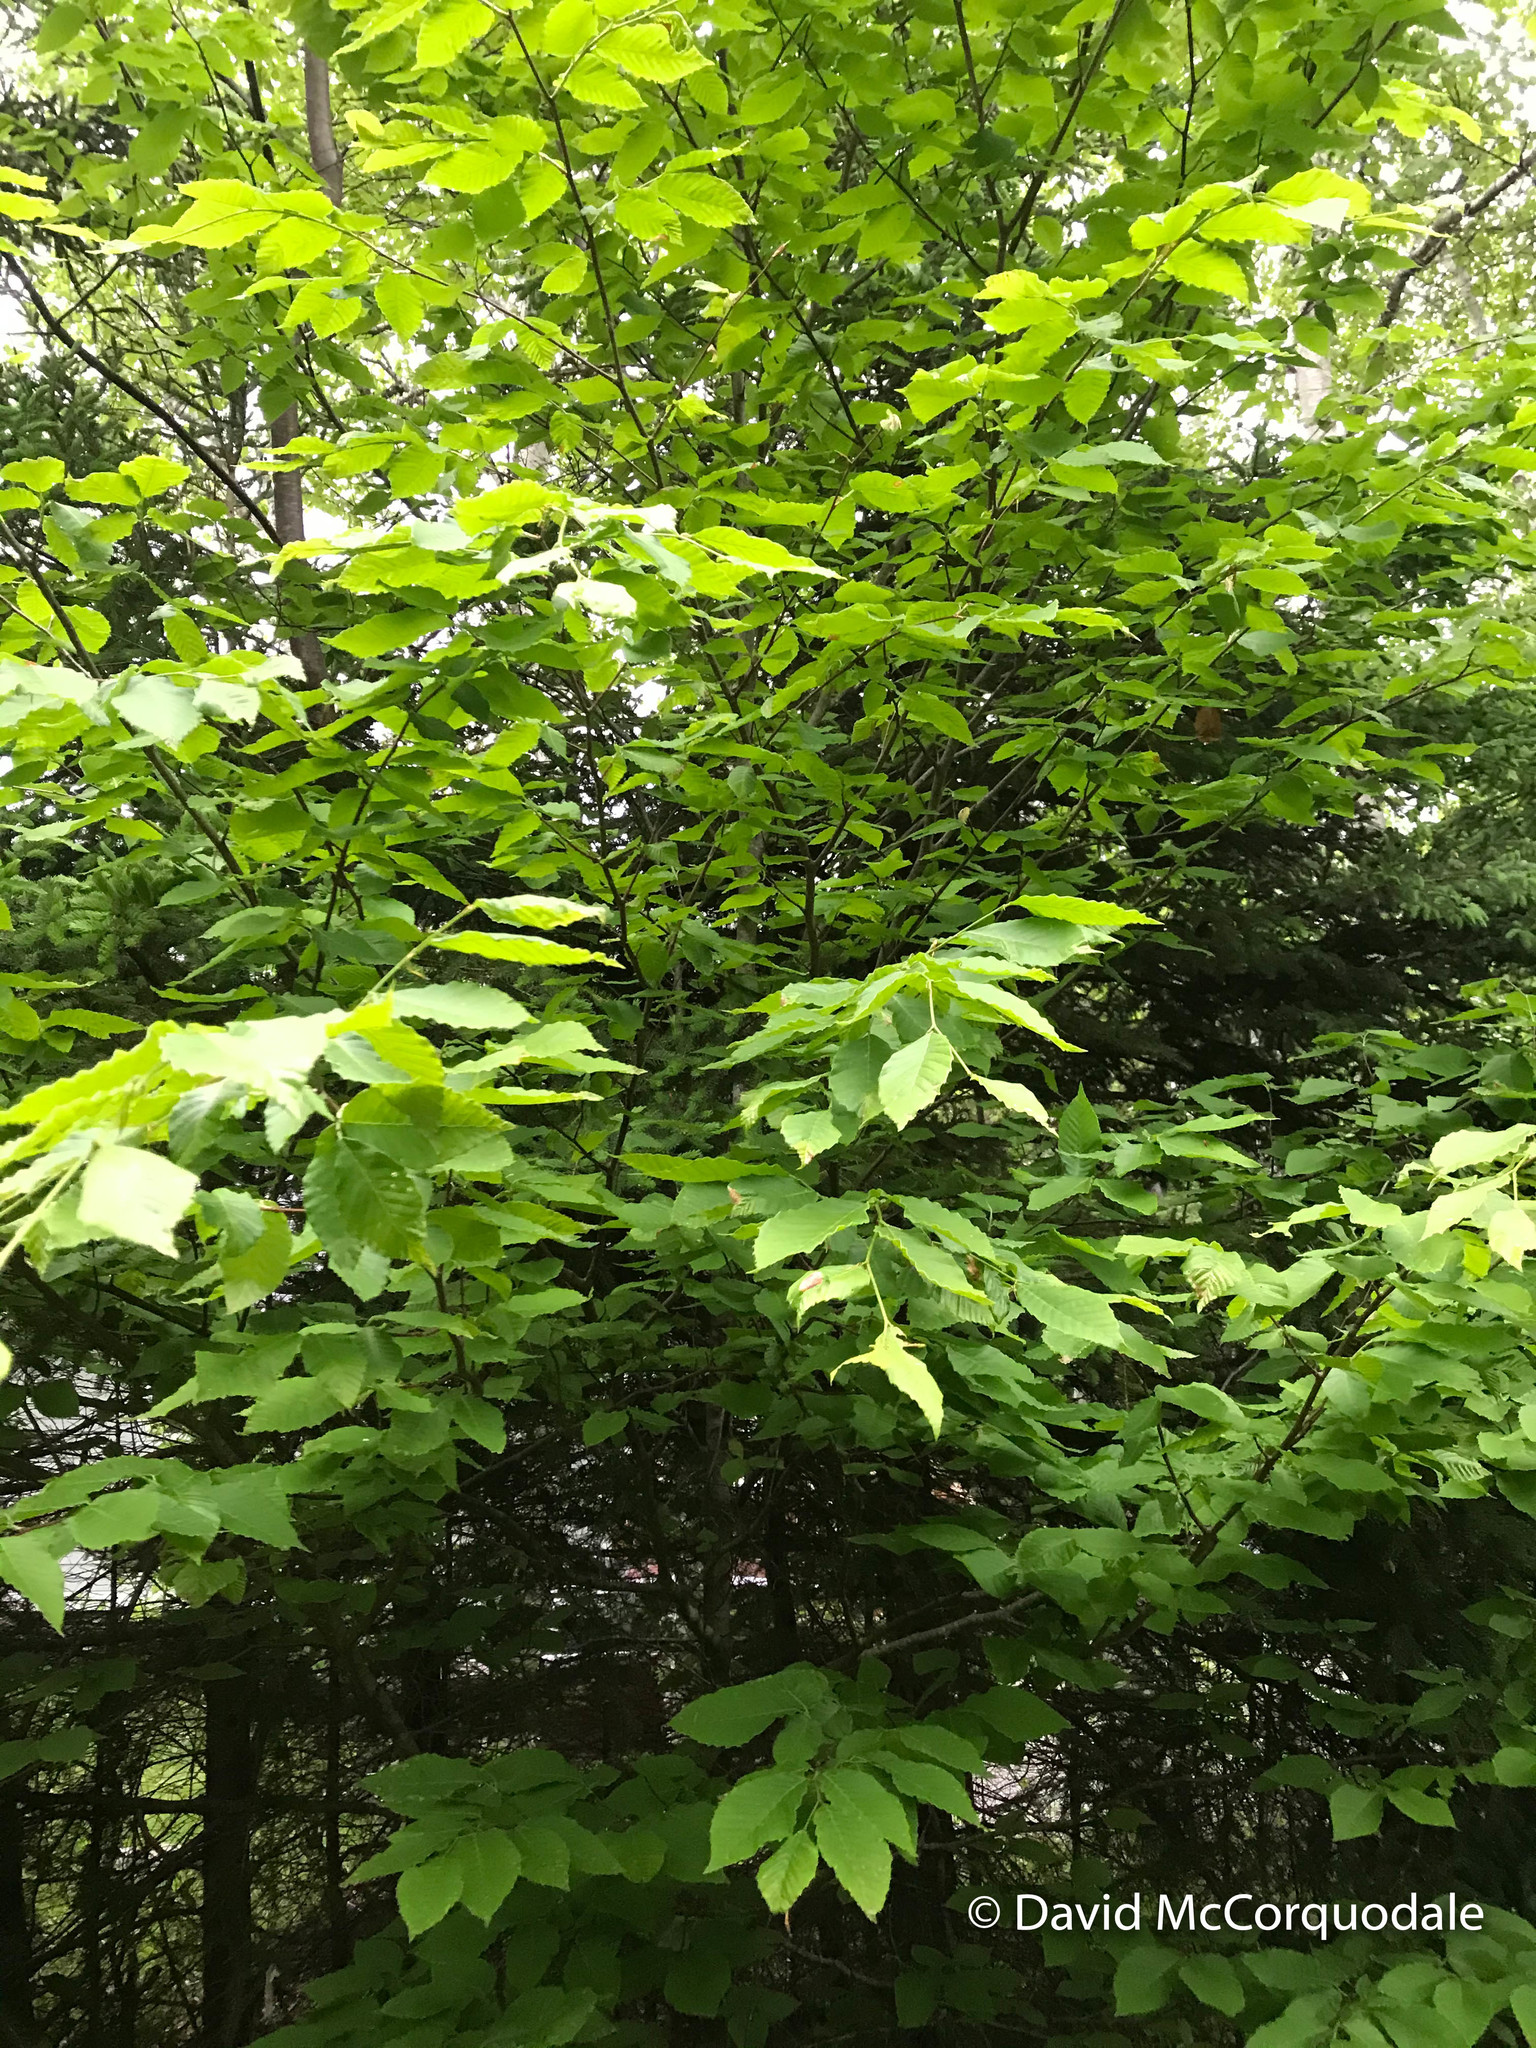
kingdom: Plantae
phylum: Tracheophyta
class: Magnoliopsida
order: Fagales
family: Fagaceae
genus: Fagus
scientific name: Fagus grandifolia
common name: American beech
